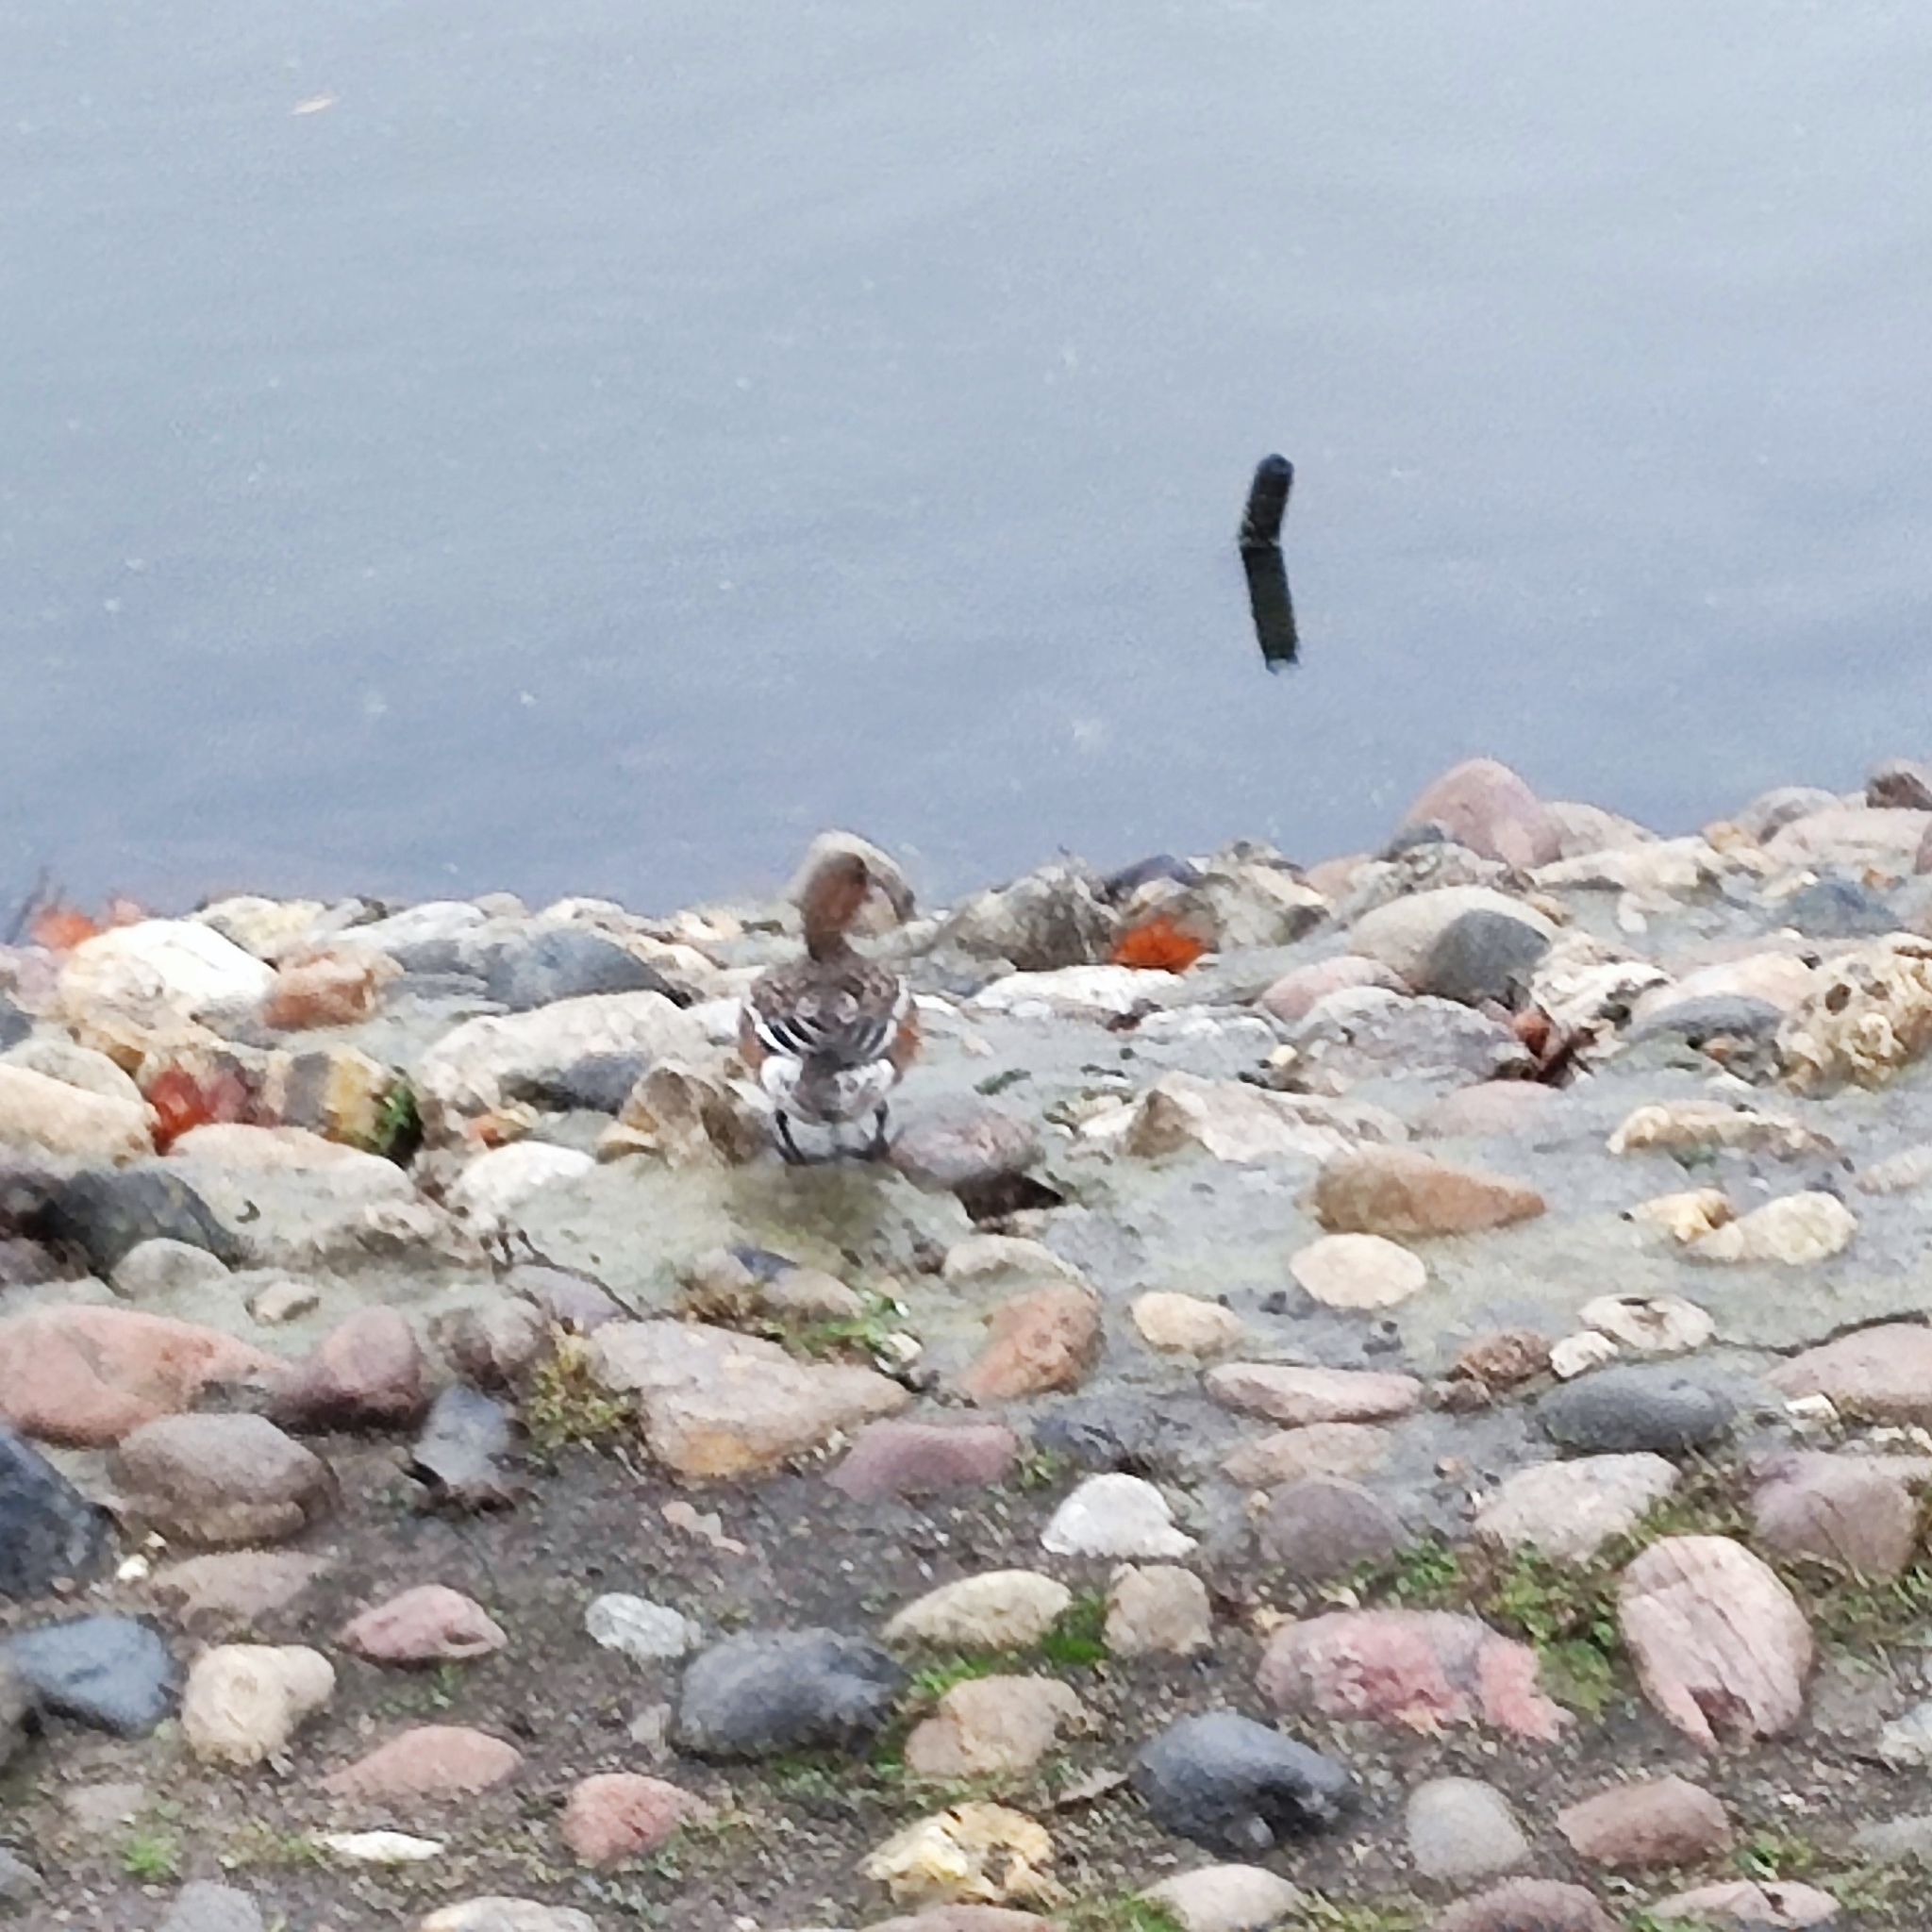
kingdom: Animalia
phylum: Chordata
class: Aves
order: Anseriformes
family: Anatidae
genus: Mareca
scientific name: Mareca penelope
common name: Eurasian wigeon
